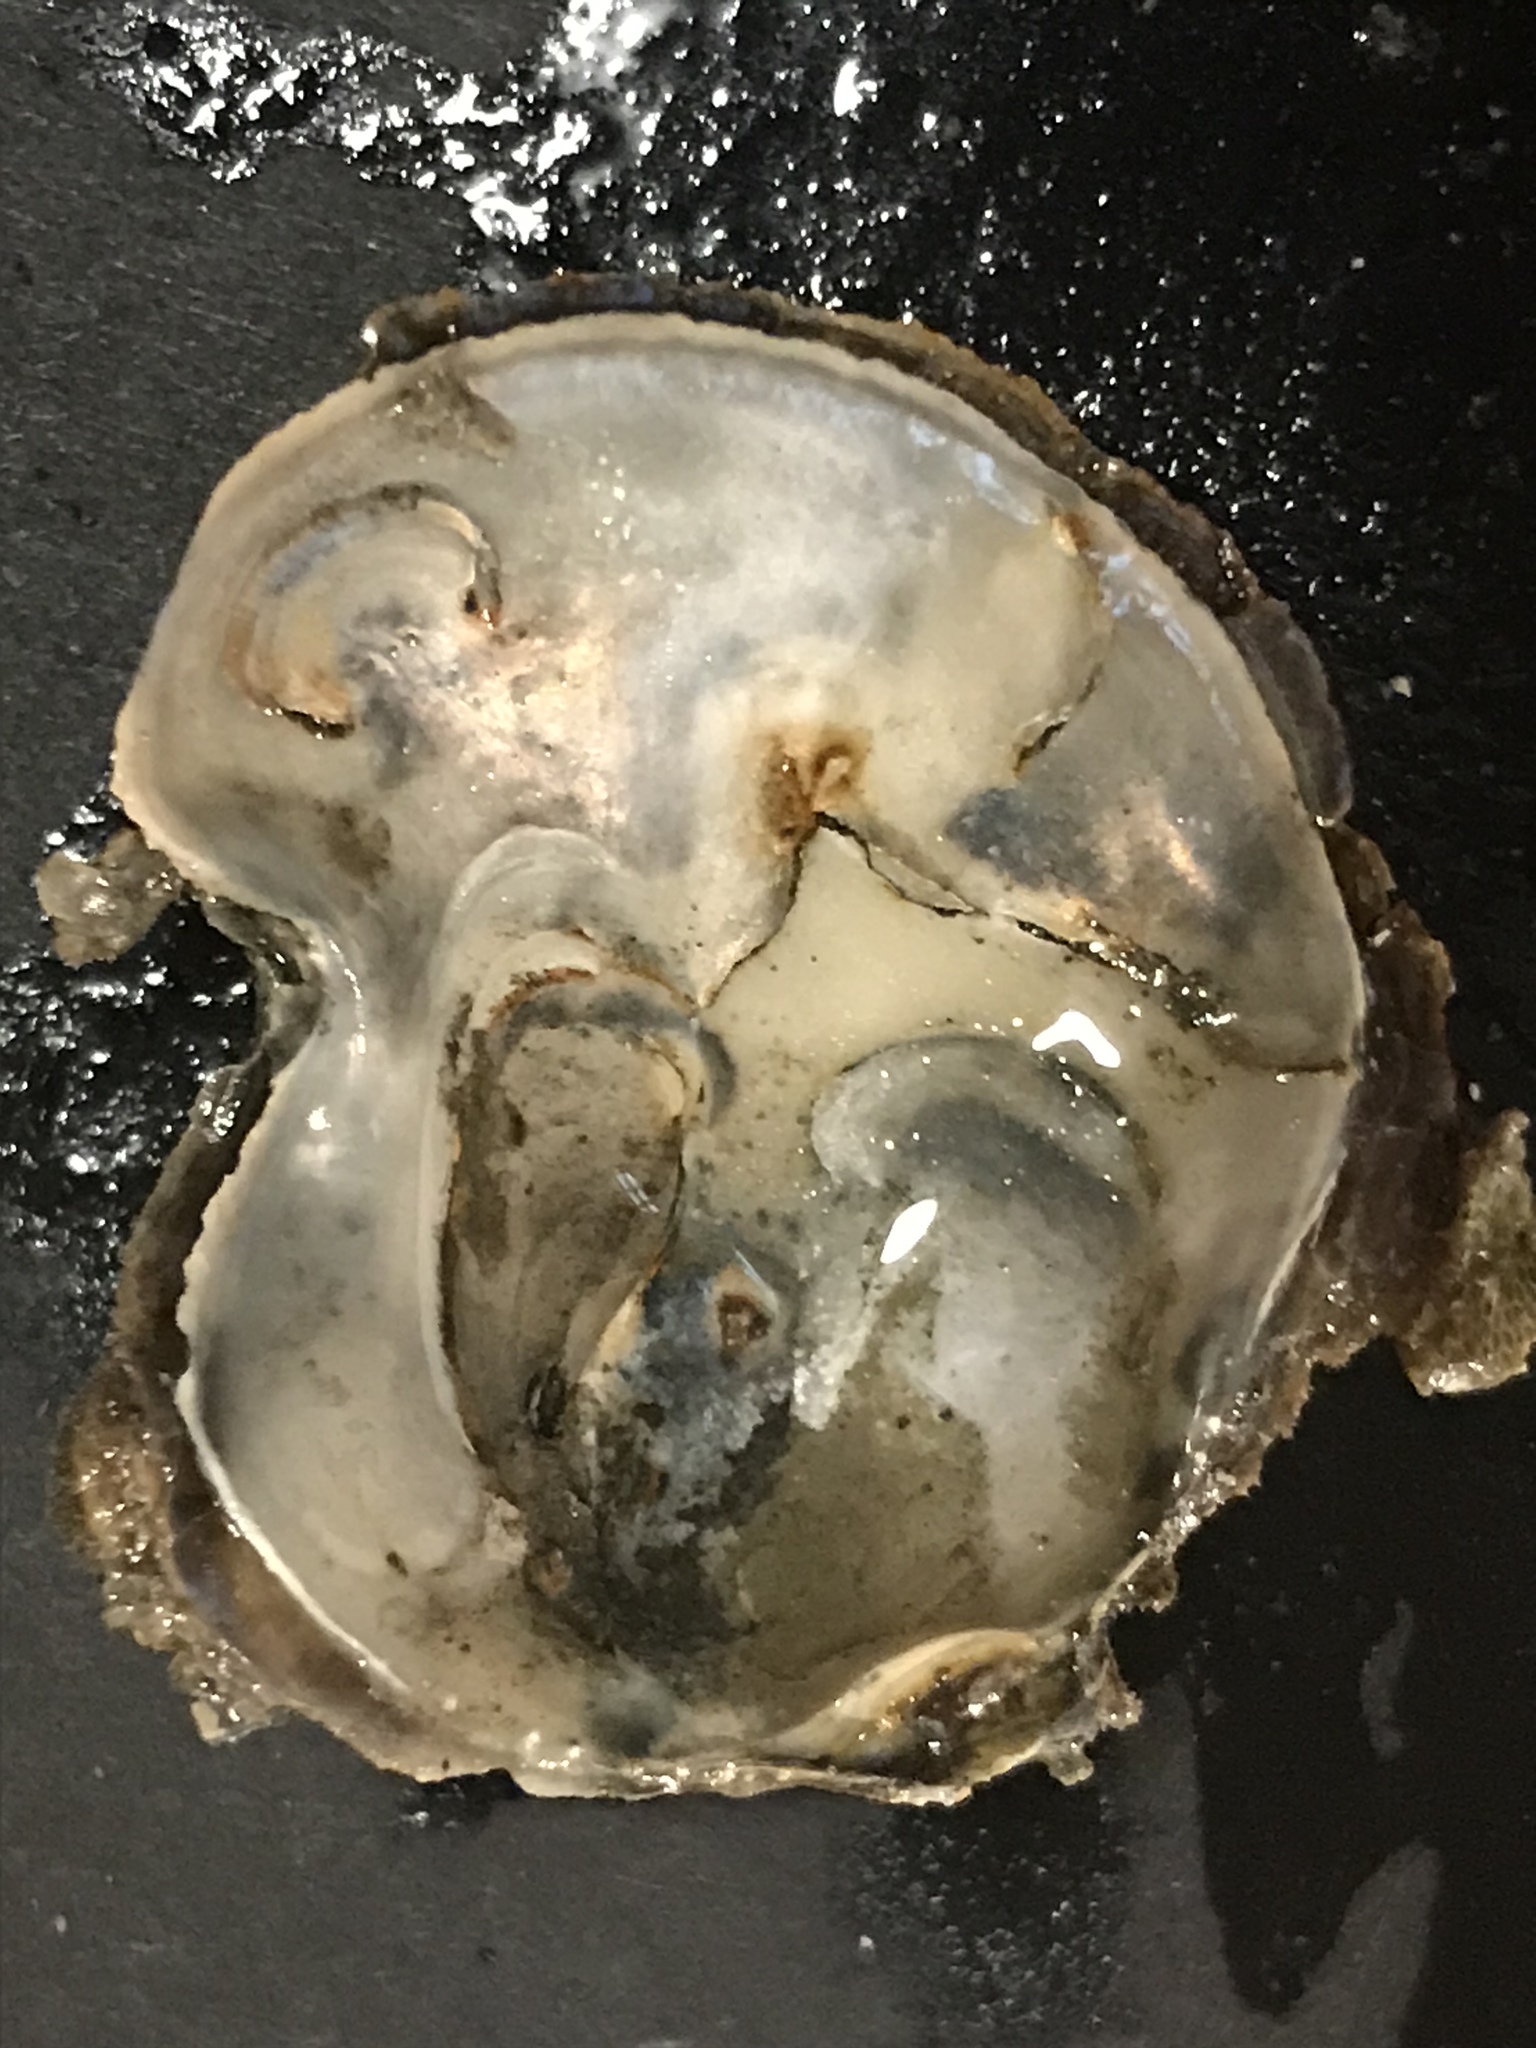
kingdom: Animalia
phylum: Mollusca
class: Bivalvia
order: Ostreida
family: Ostreidae
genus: Ostrea
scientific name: Ostrea lurida
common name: Olympia flat oyster
